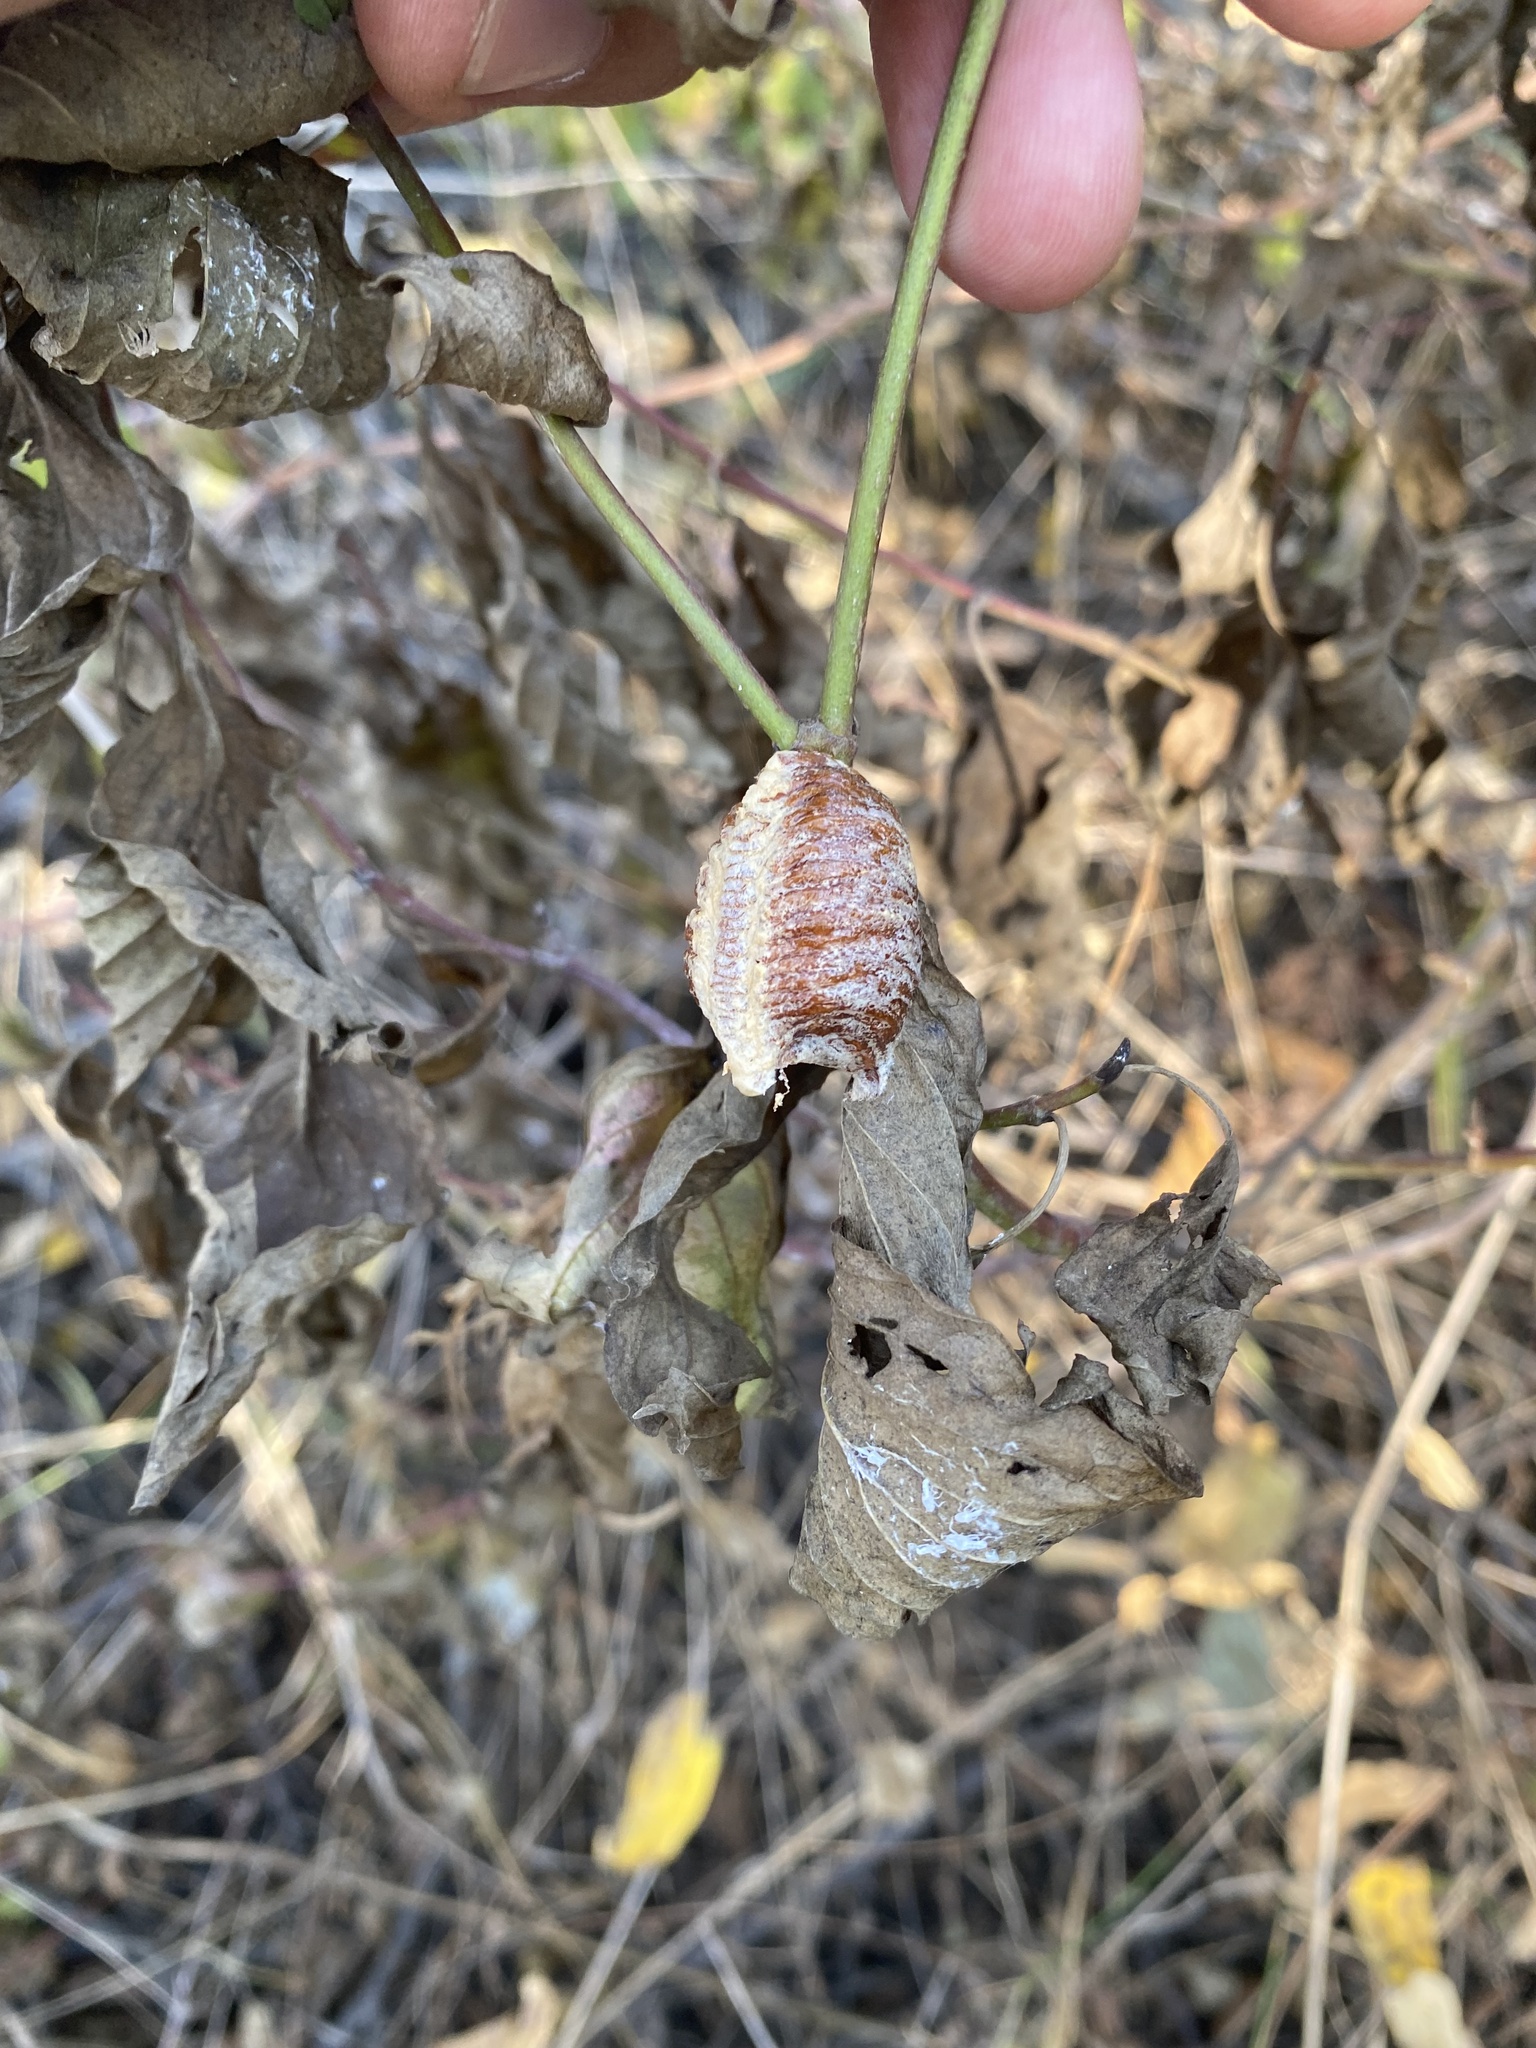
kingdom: Animalia
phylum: Arthropoda
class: Insecta
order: Mantodea
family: Mantidae
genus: Hierodula
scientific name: Hierodula transcaucasica
